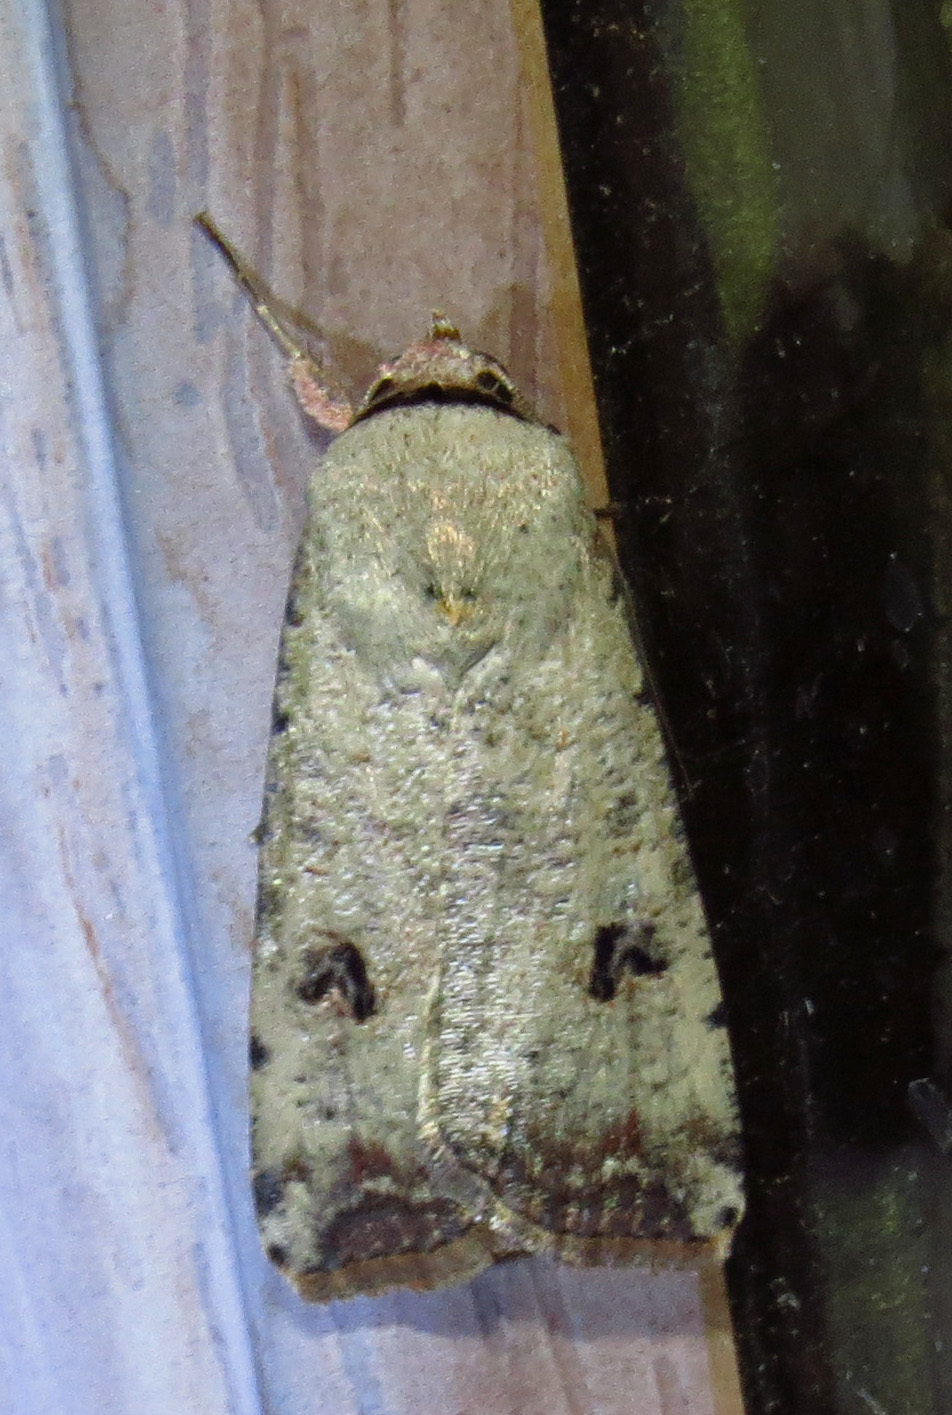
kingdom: Animalia
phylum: Arthropoda
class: Insecta
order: Lepidoptera
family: Noctuidae
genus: Anicla
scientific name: Anicla infecta
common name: Green cutworm
